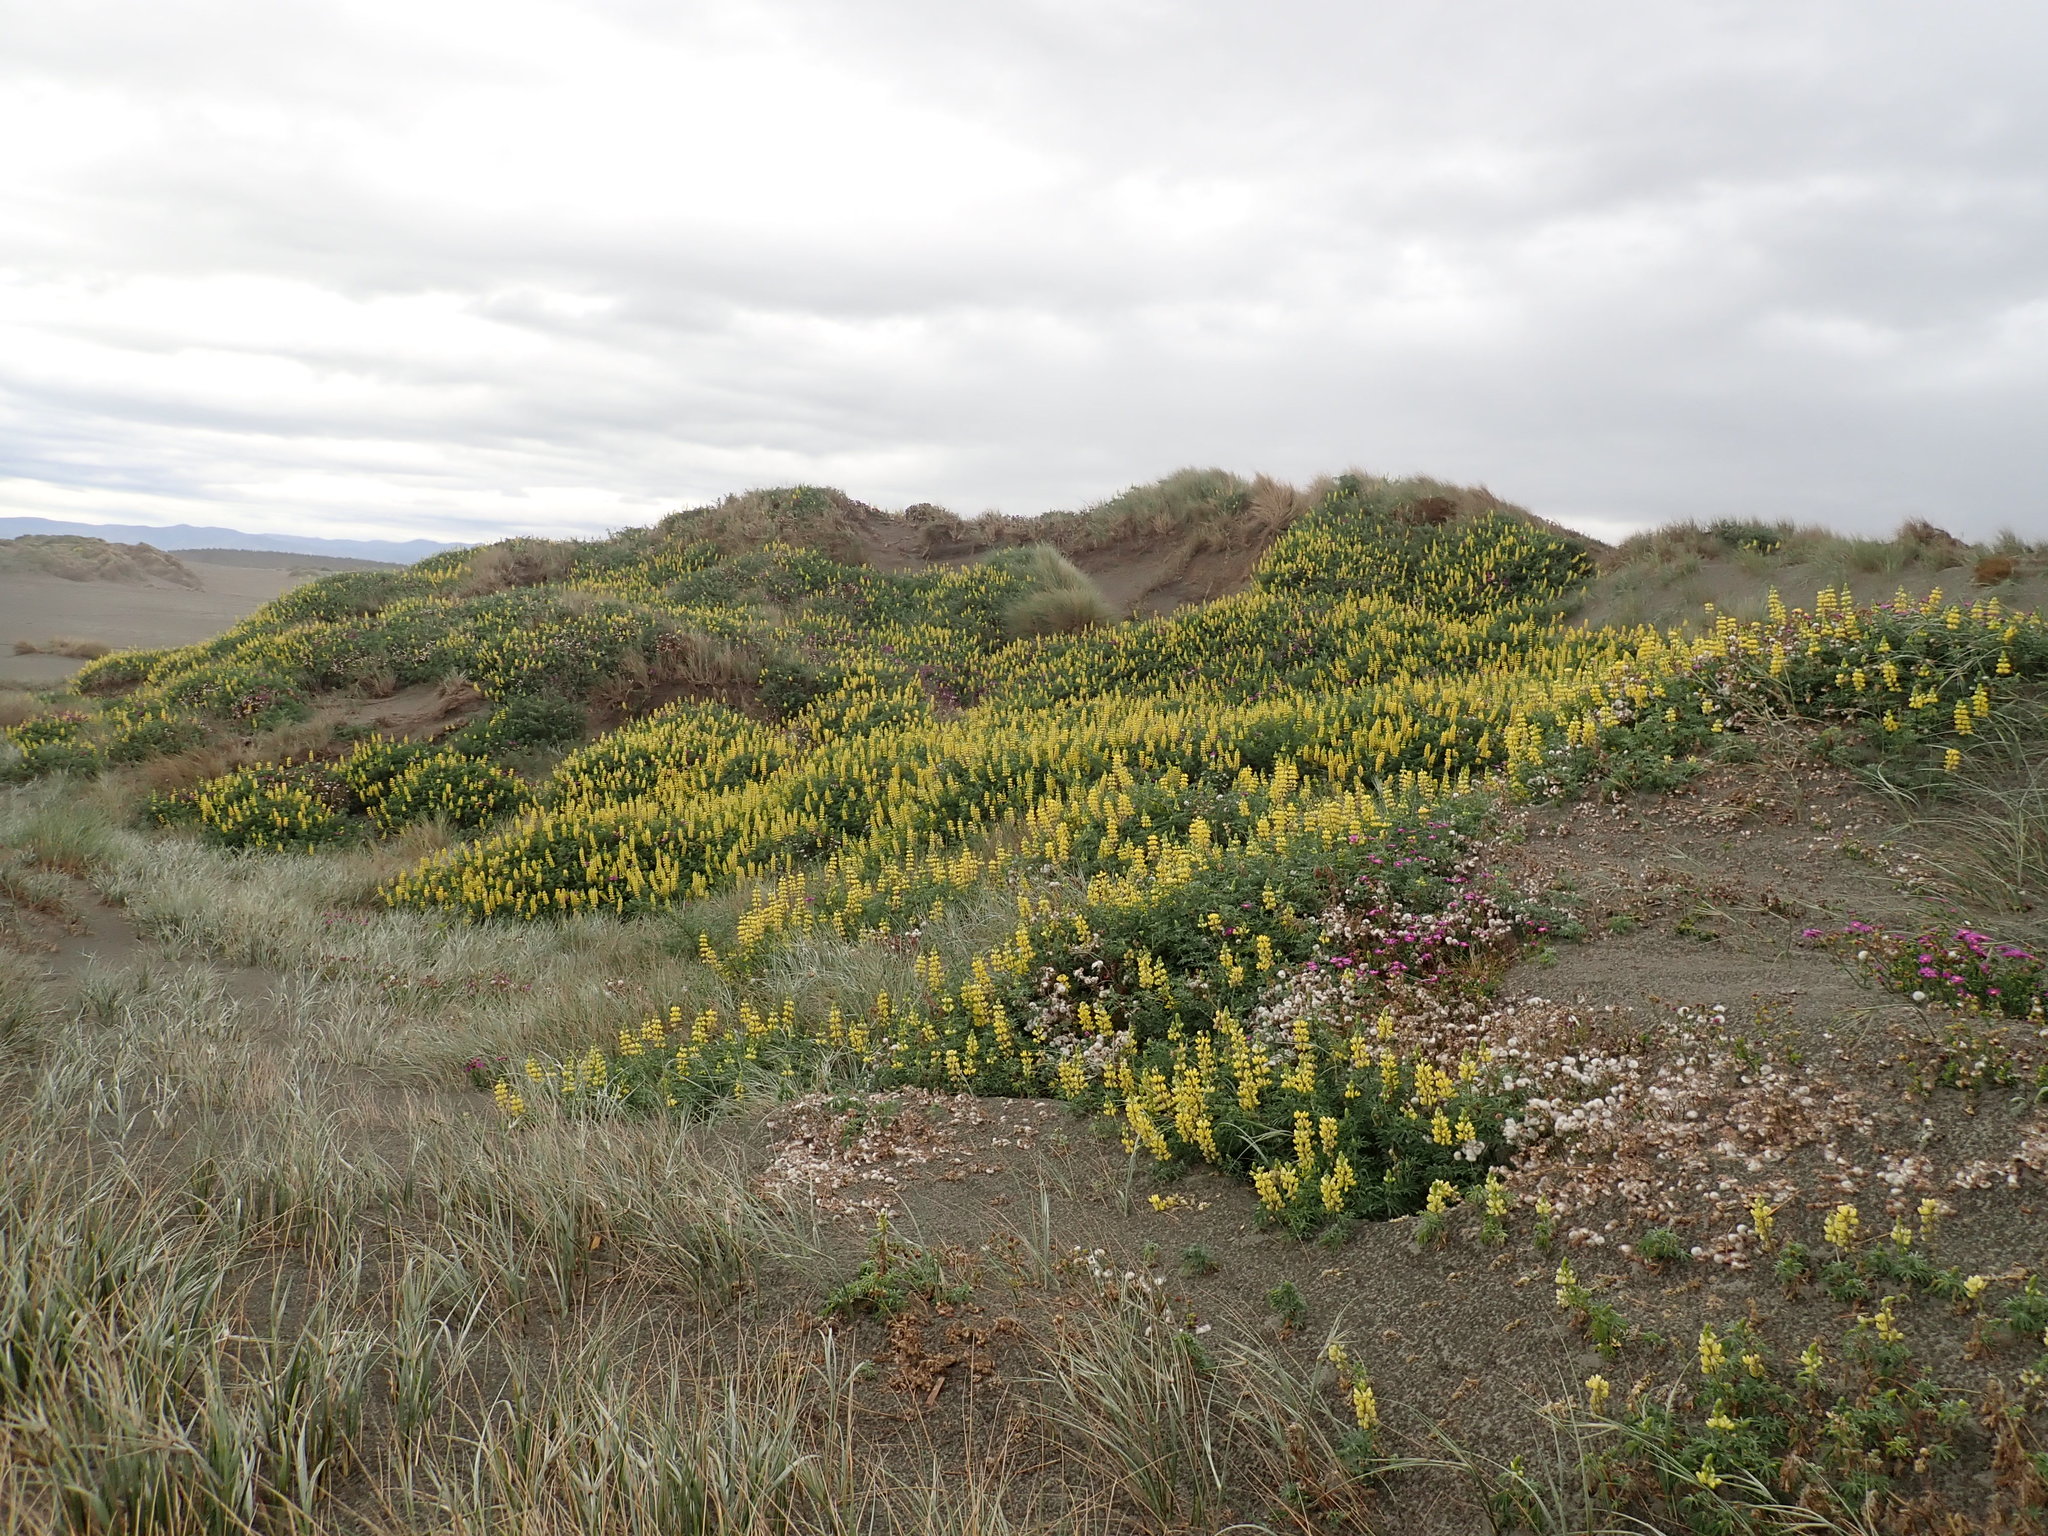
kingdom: Plantae
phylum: Tracheophyta
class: Magnoliopsida
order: Fabales
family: Fabaceae
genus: Lupinus
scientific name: Lupinus arboreus
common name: Yellow bush lupine
